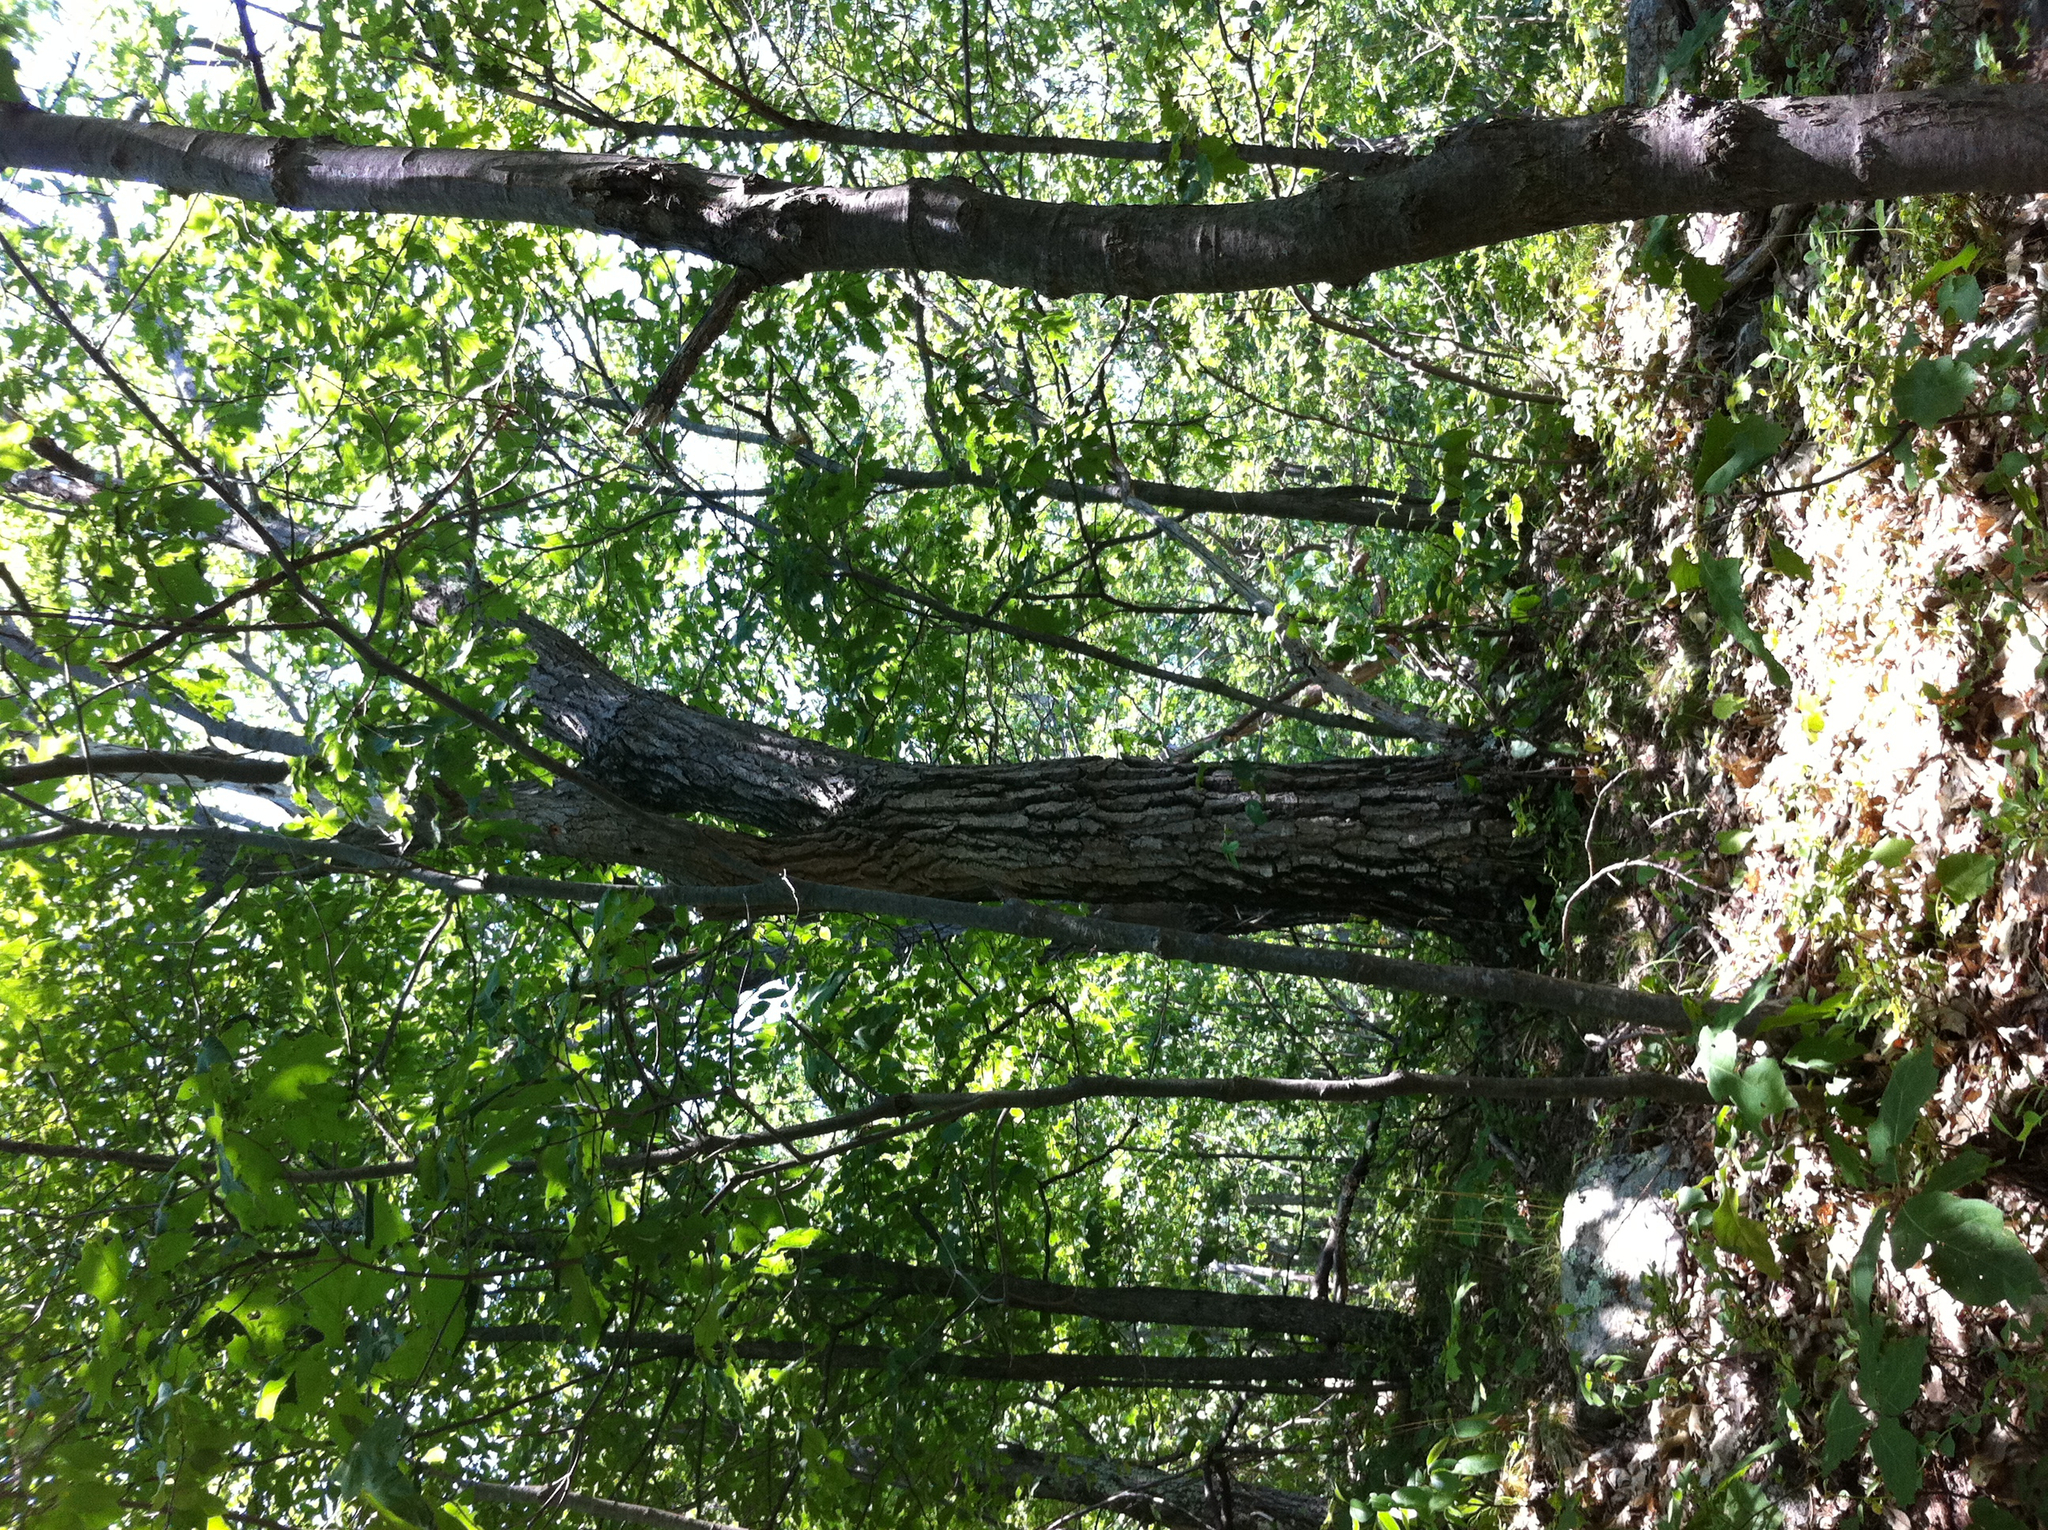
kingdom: Plantae
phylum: Tracheophyta
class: Magnoliopsida
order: Sapindales
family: Sapindaceae
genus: Acer
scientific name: Acer pensylvanicum
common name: Moosewood
